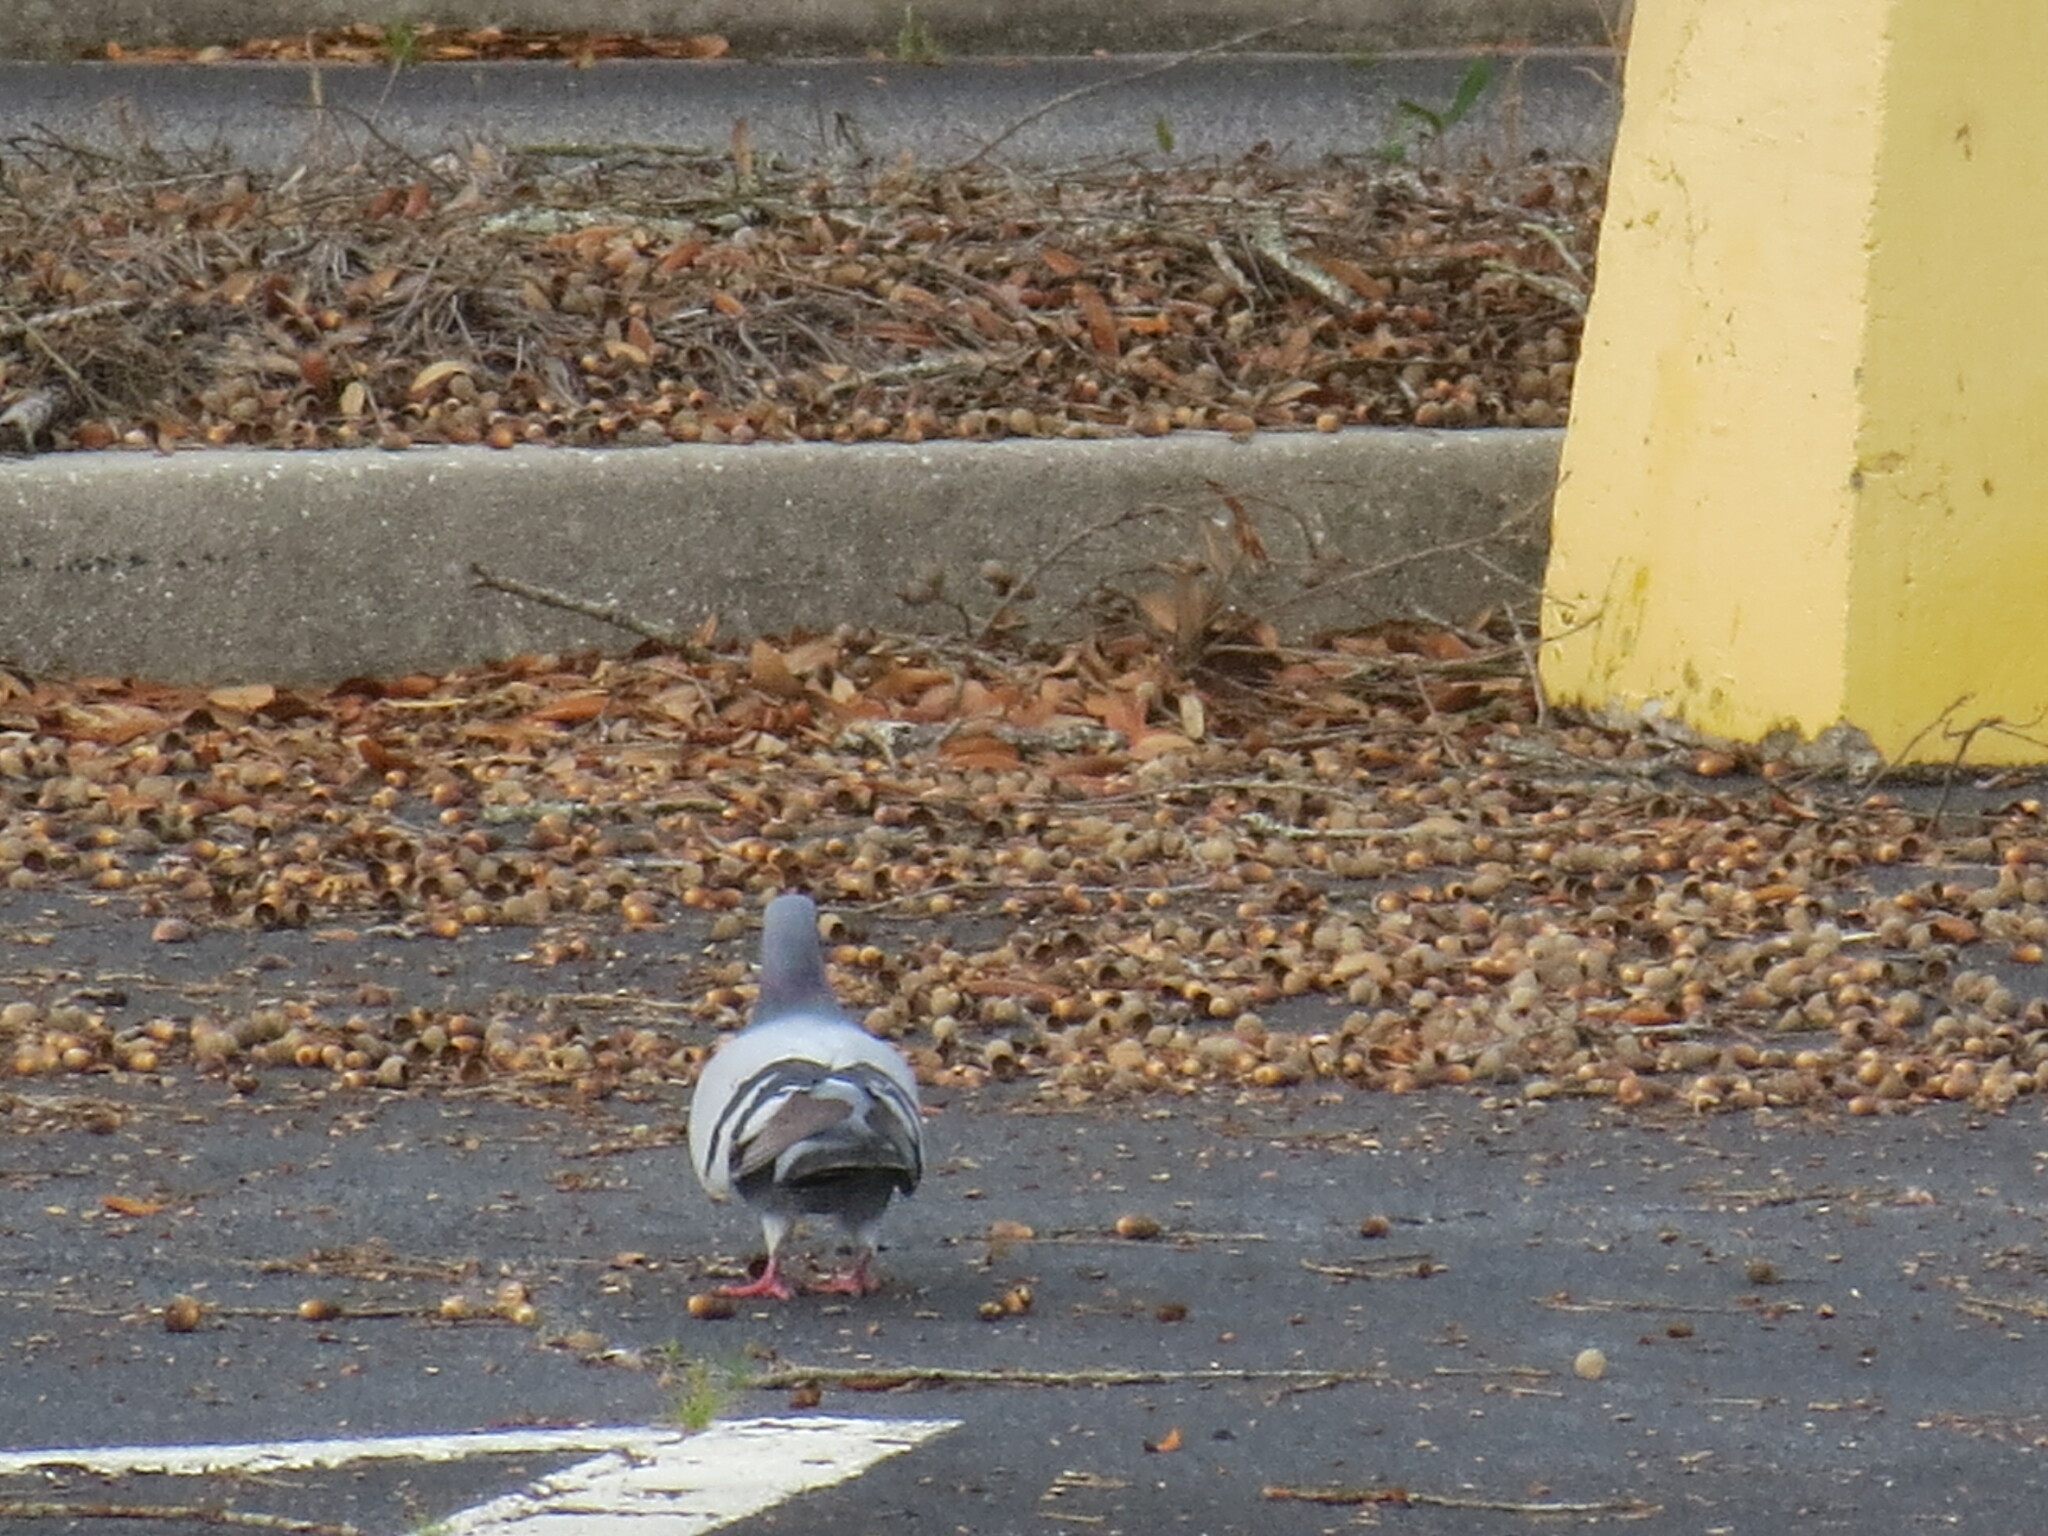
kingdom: Animalia
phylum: Chordata
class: Aves
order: Columbiformes
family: Columbidae
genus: Columba
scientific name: Columba livia
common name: Rock pigeon
